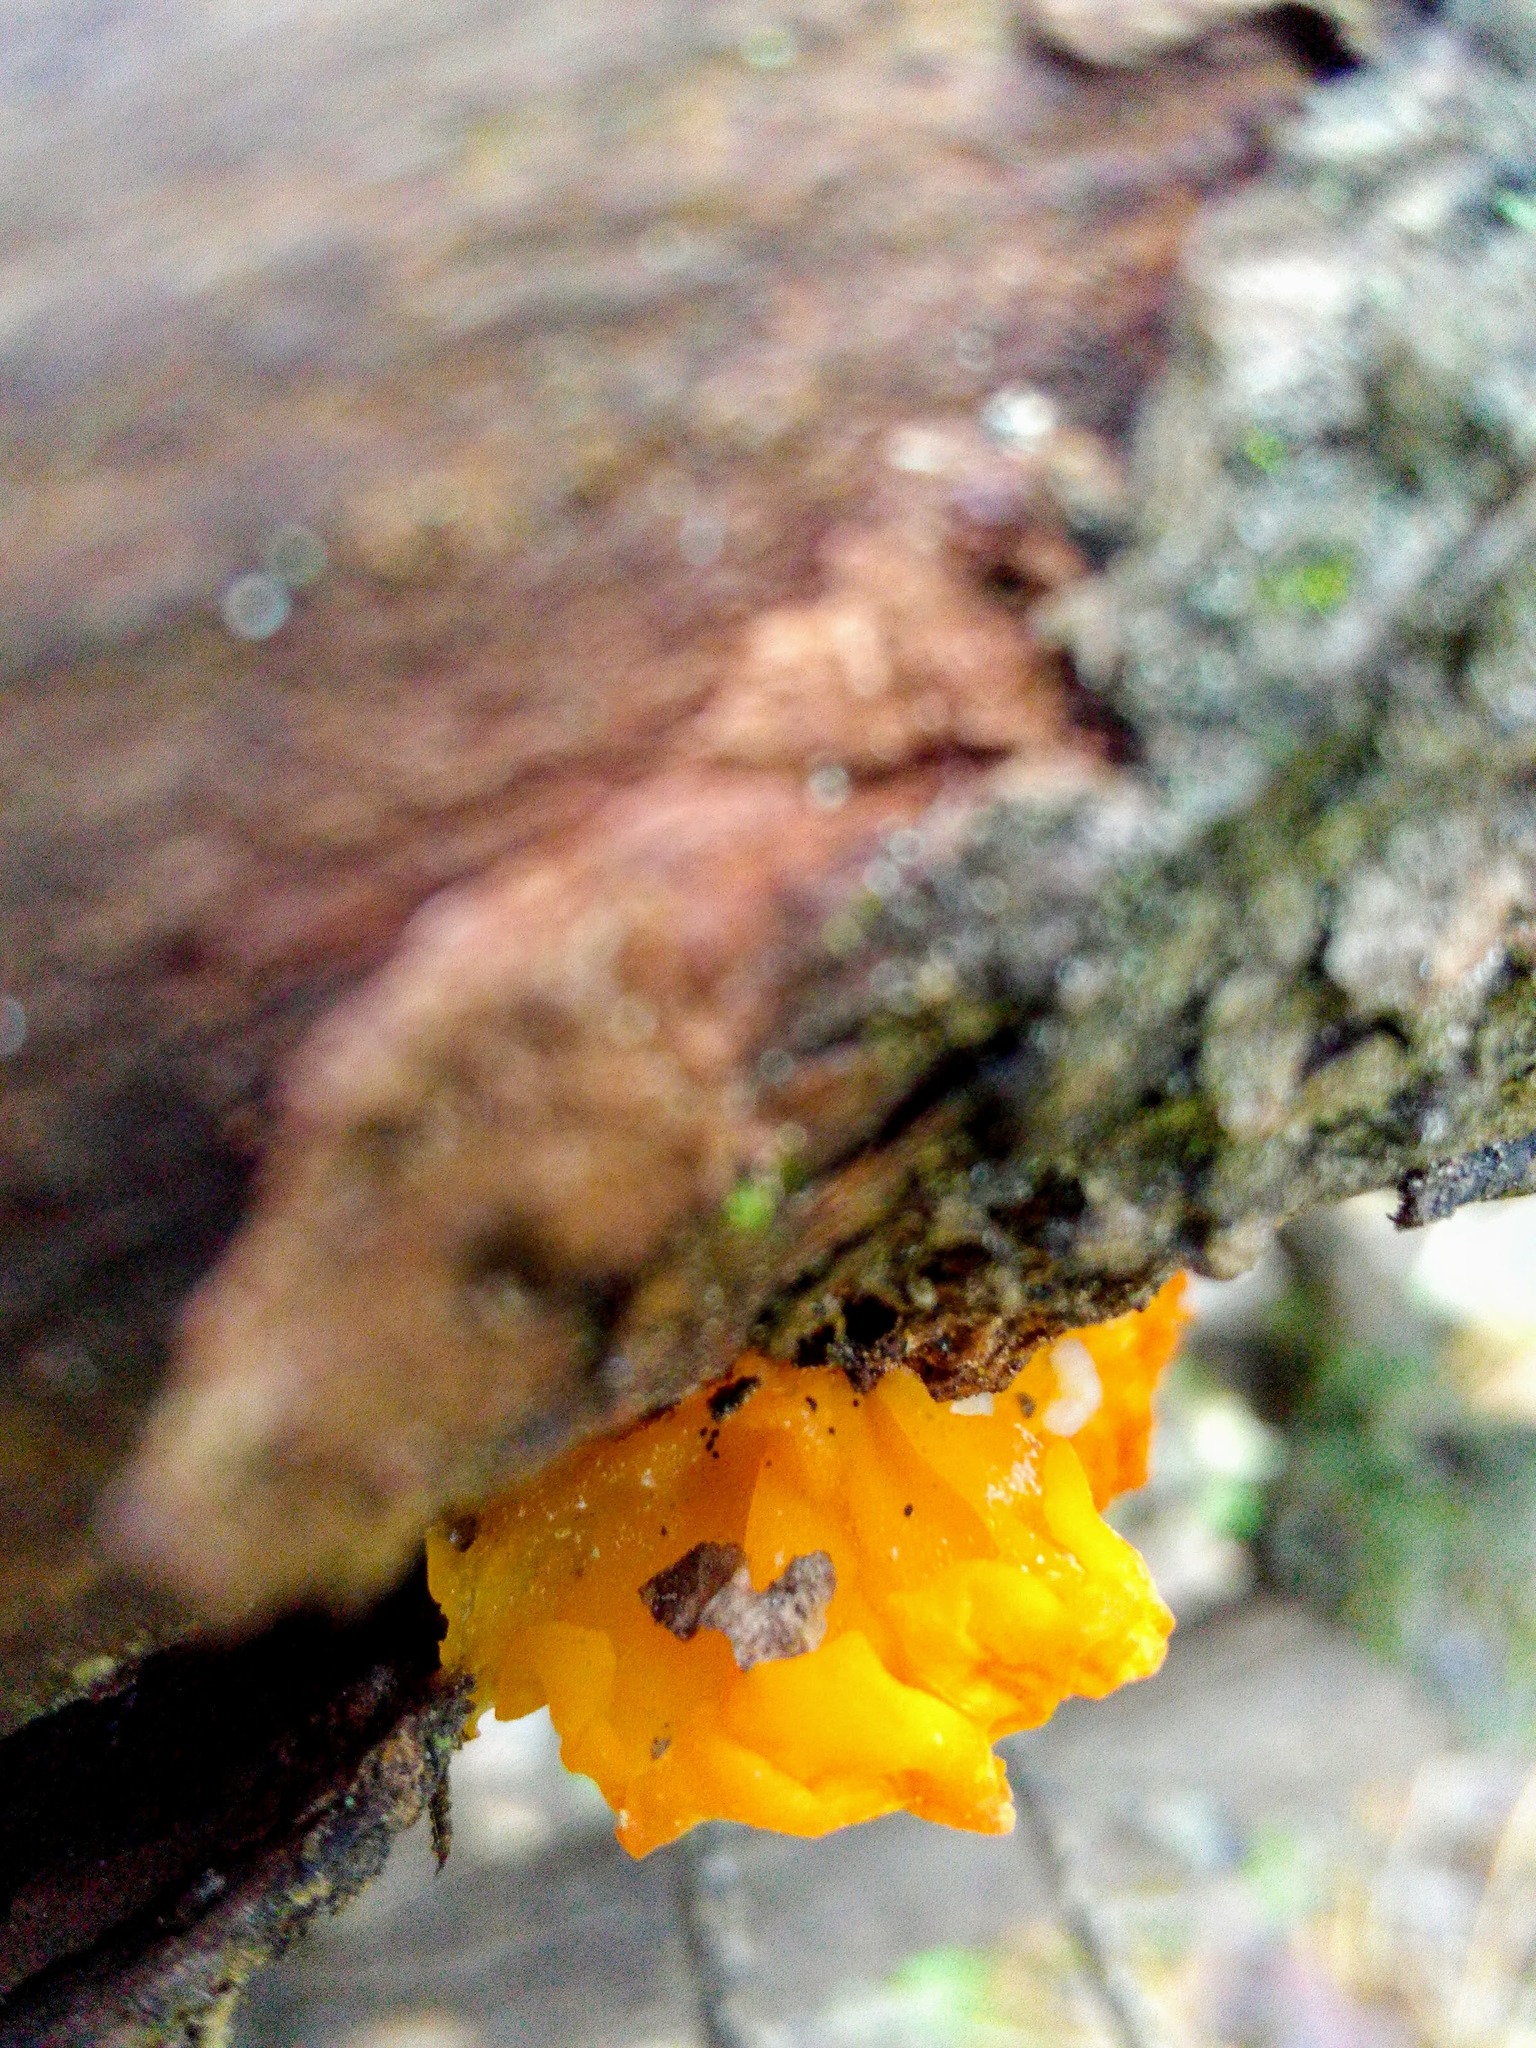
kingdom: Fungi
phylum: Basidiomycota
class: Tremellomycetes
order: Tremellales
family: Tremellaceae
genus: Tremella
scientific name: Tremella mesenterica
